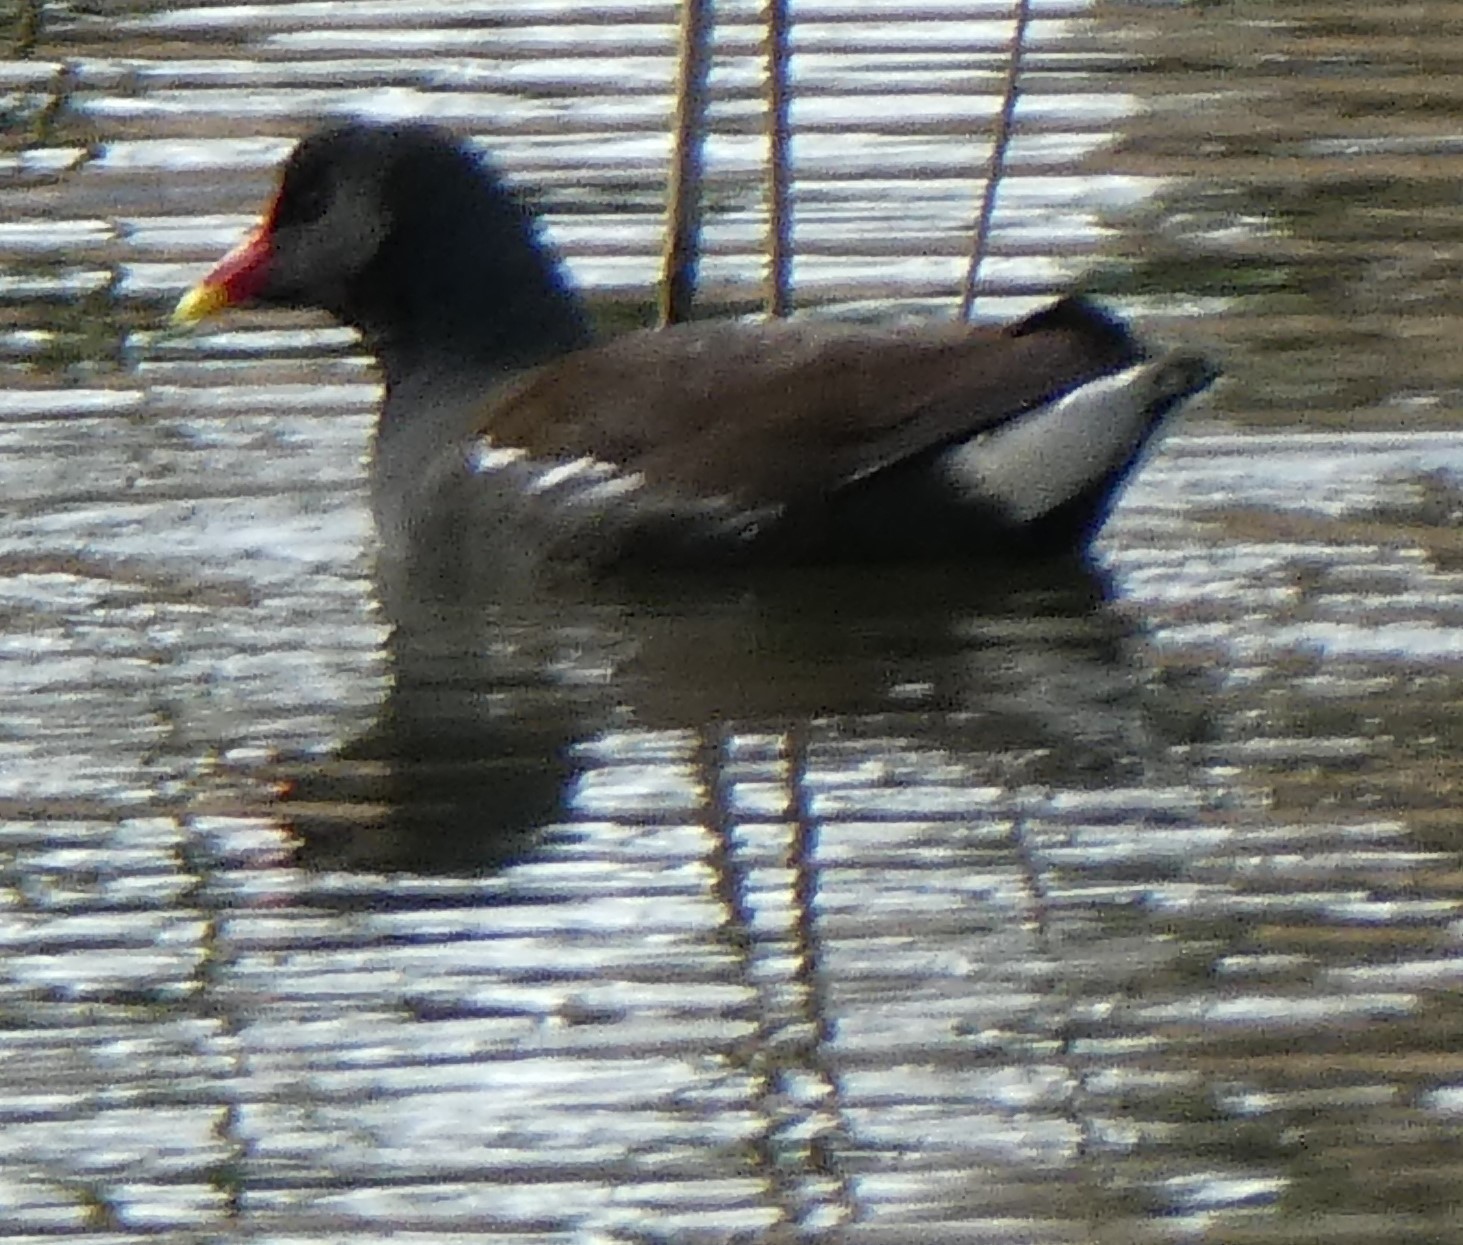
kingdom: Animalia
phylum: Chordata
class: Aves
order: Gruiformes
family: Rallidae
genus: Gallinula
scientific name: Gallinula chloropus
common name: Common moorhen
